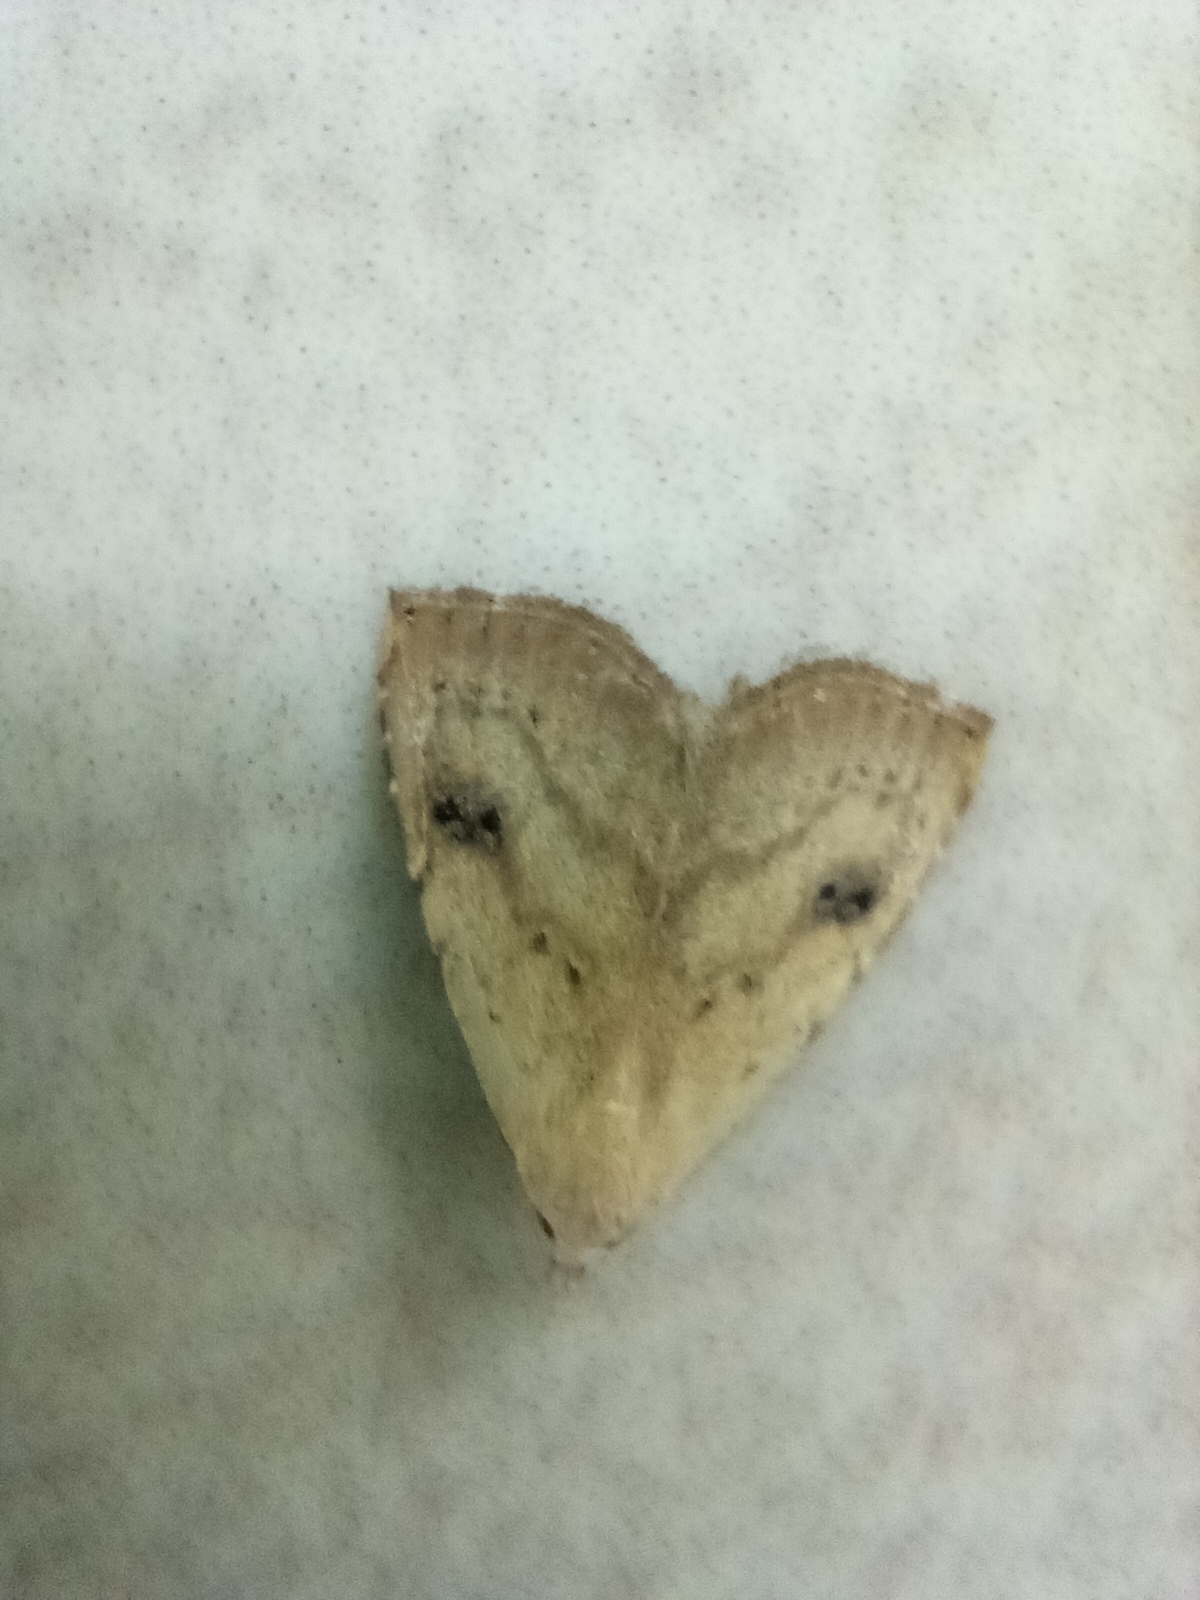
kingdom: Animalia
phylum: Arthropoda
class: Insecta
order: Lepidoptera
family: Erebidae
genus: Rivula
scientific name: Rivula sericealis
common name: Straw dot
